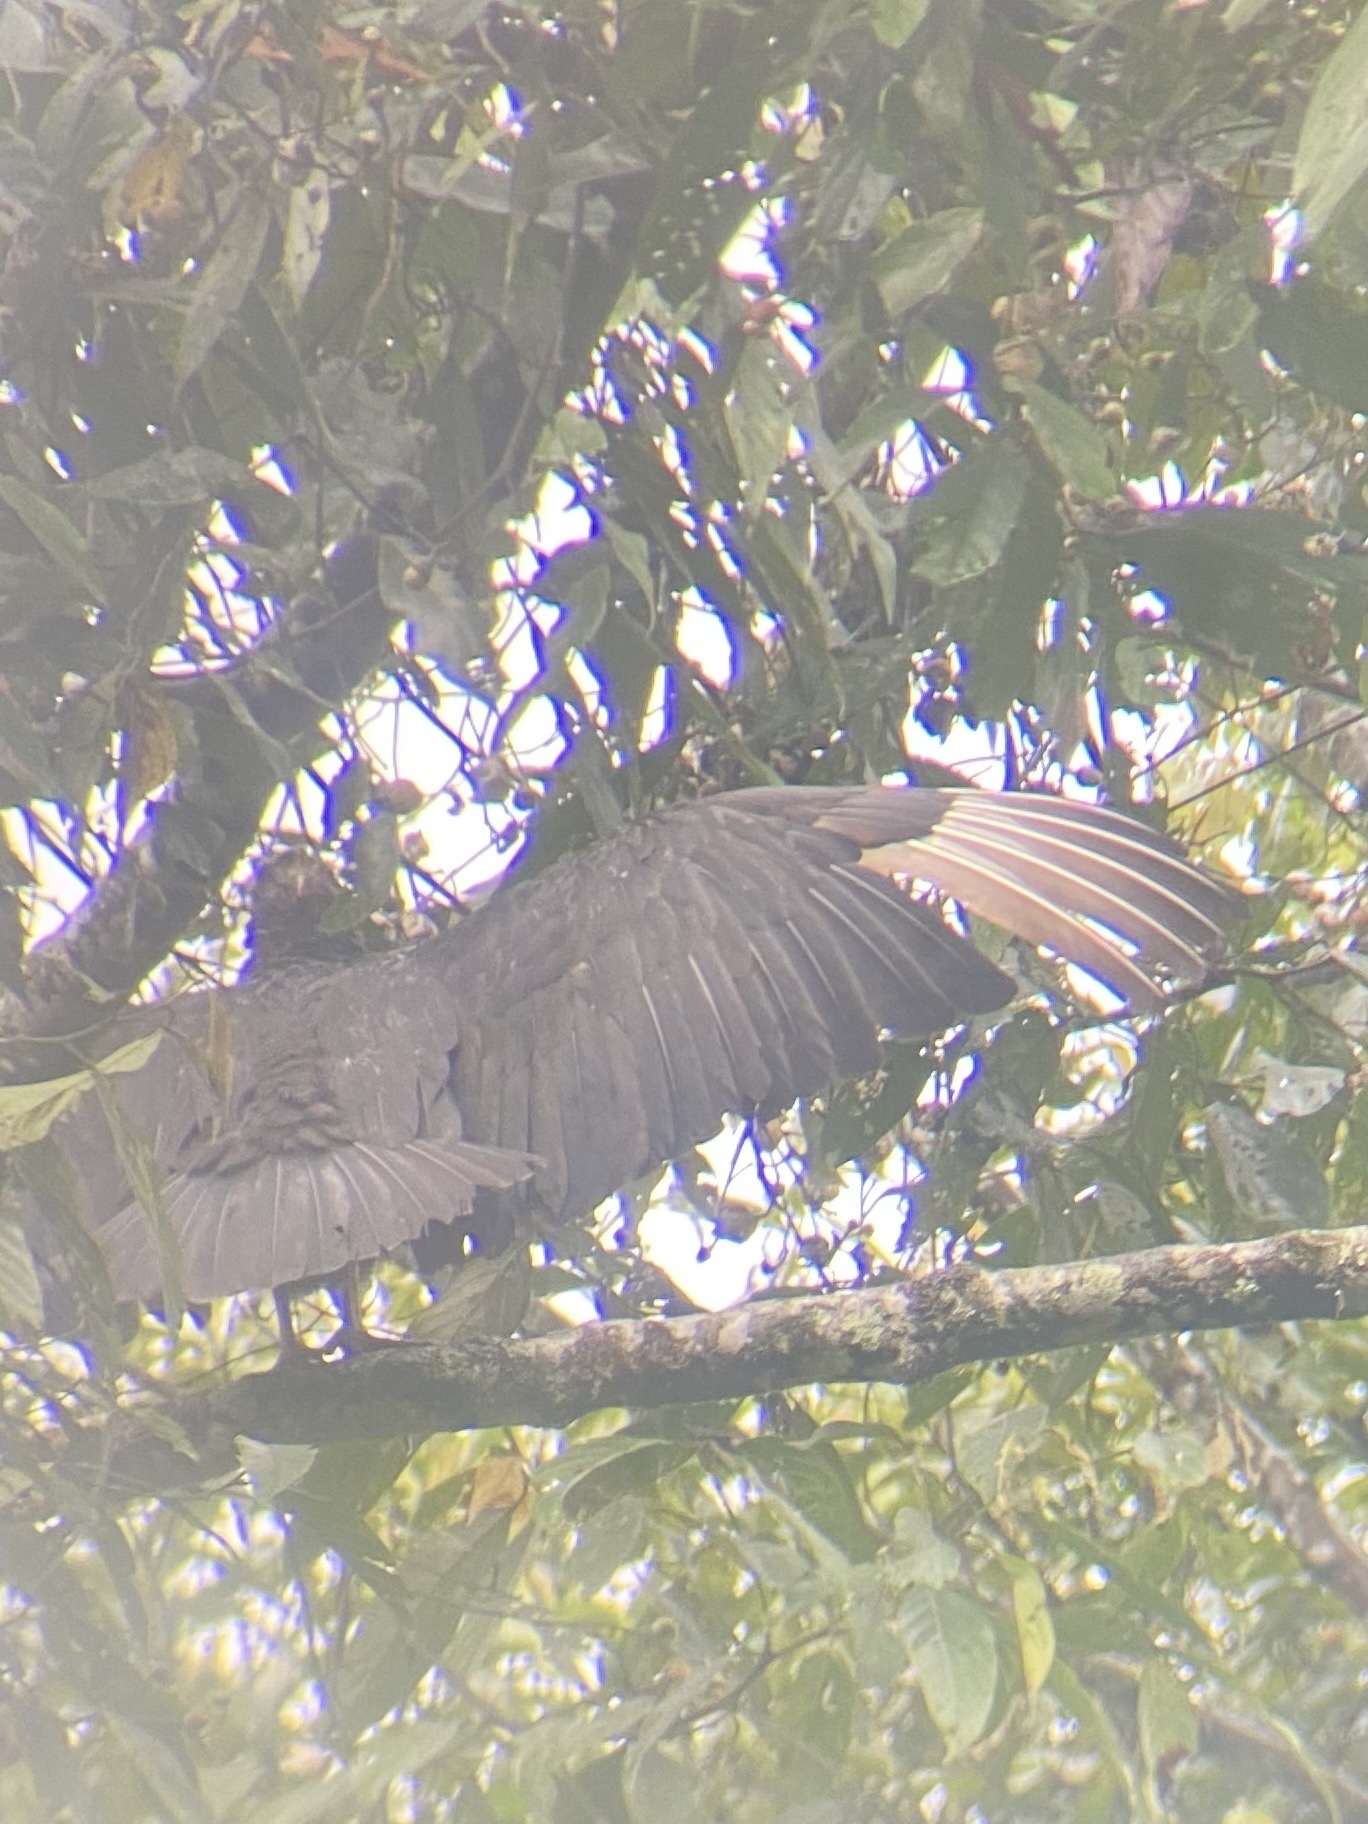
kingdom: Animalia
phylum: Chordata
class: Aves
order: Accipitriformes
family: Cathartidae
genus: Coragyps
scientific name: Coragyps atratus
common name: Black vulture
